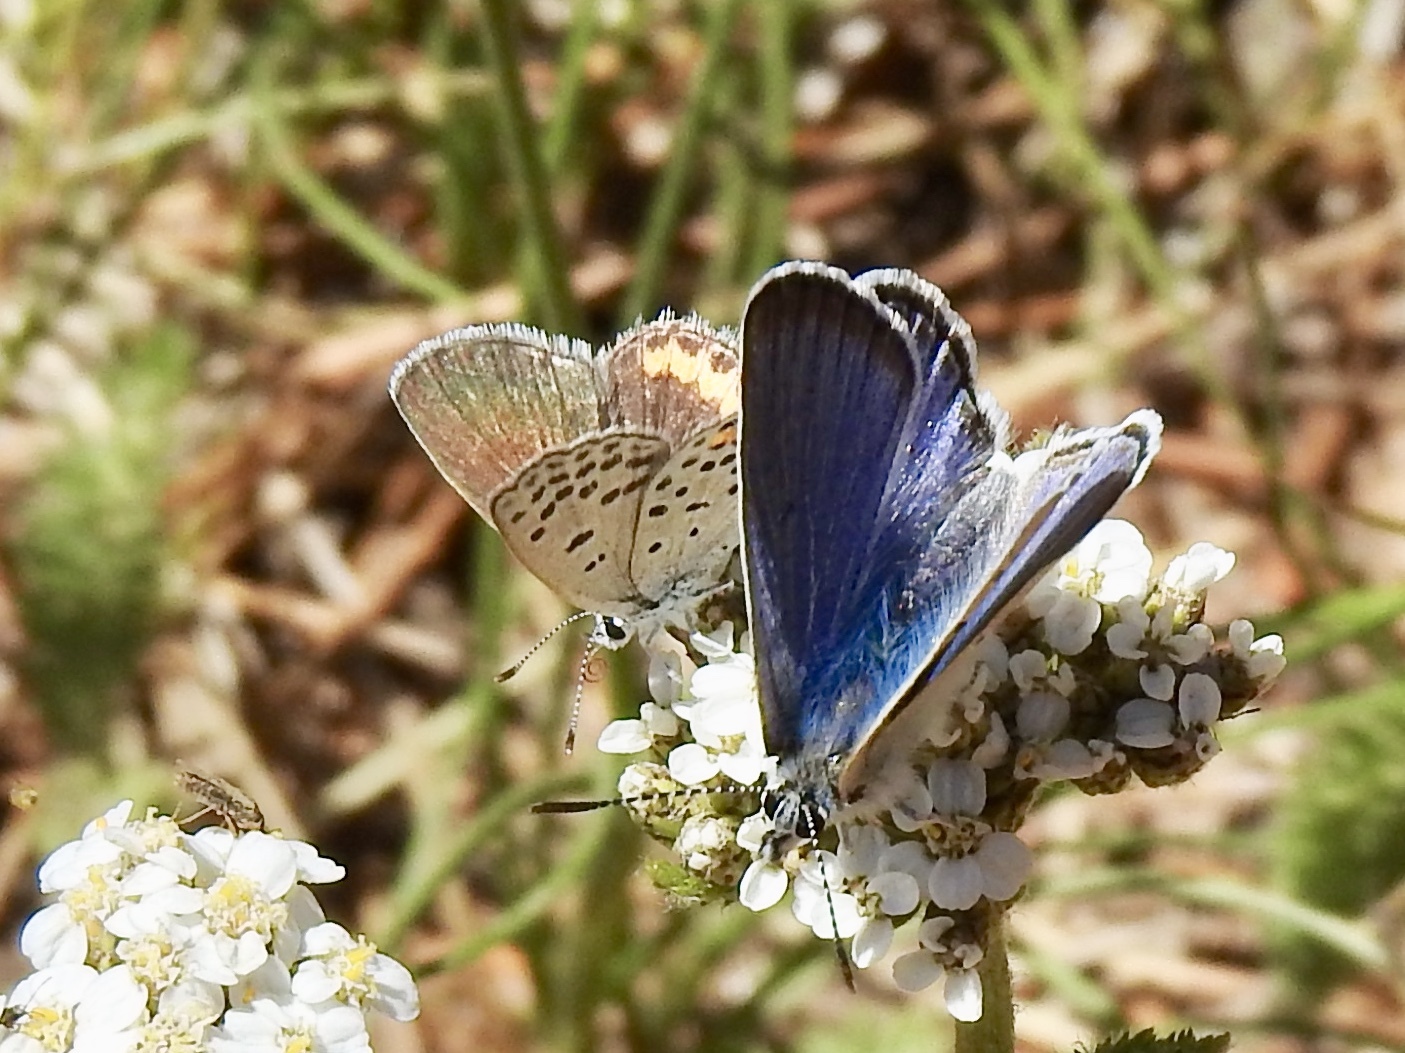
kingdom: Animalia
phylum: Arthropoda
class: Insecta
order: Lepidoptera
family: Lycaenidae
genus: Icaricia
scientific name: Icaricia icarioides
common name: Boisduval's blue
